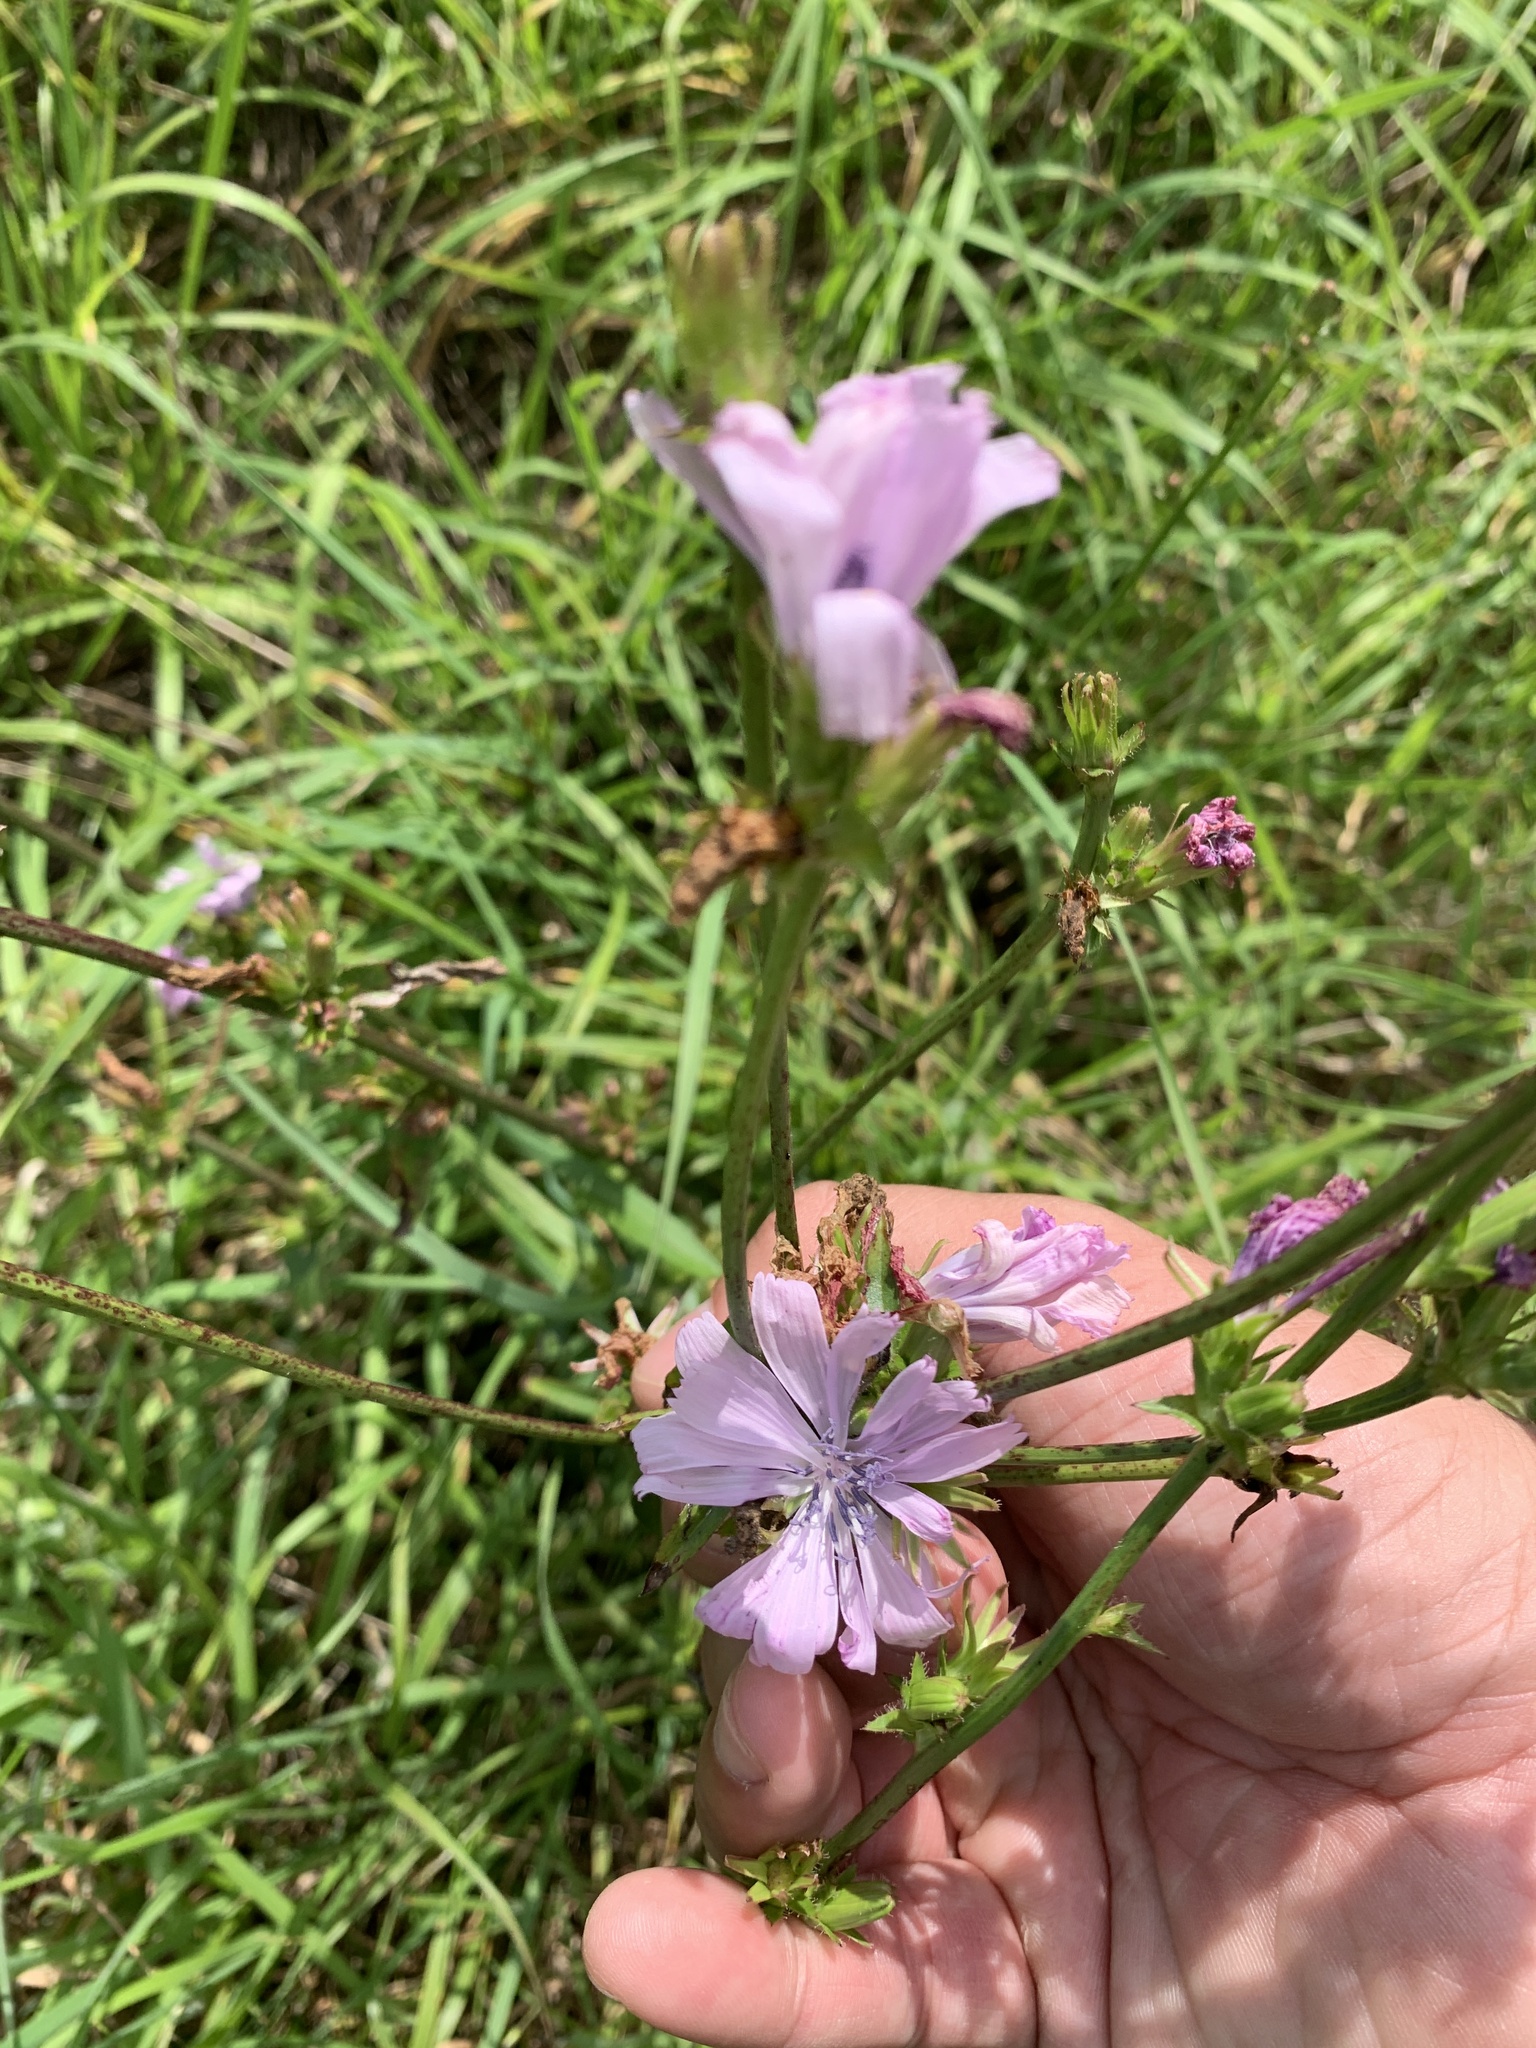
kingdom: Plantae
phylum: Tracheophyta
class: Magnoliopsida
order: Malvales
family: Malvaceae
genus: Malva
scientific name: Malva moschata
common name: Musk mallow
